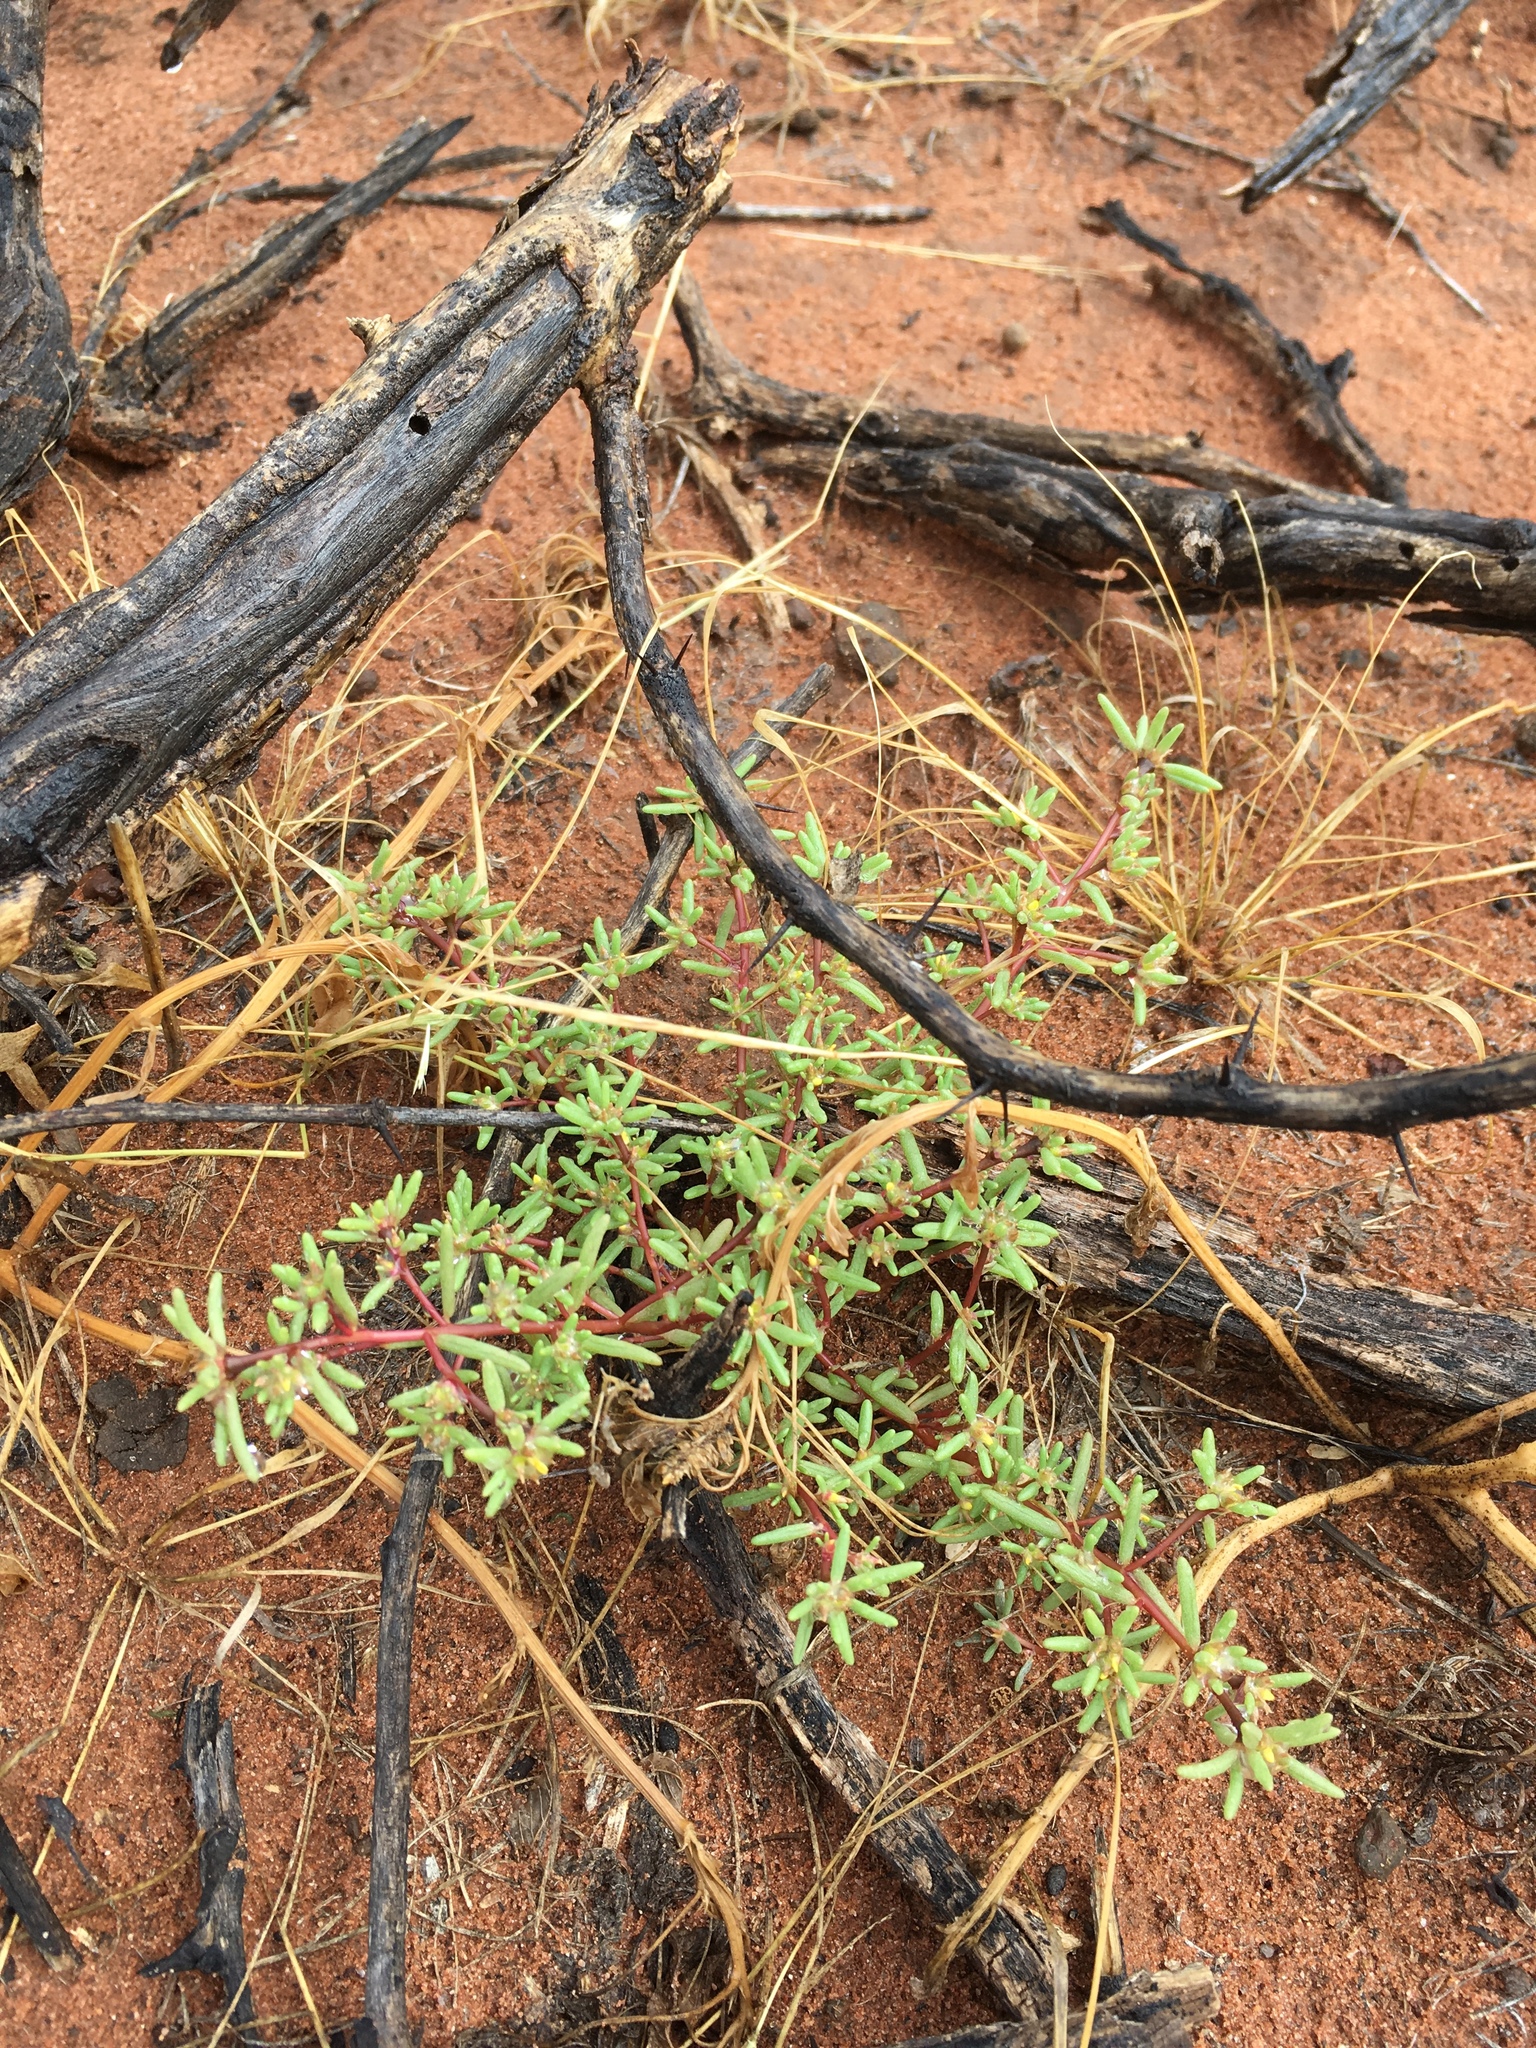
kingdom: Plantae
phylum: Tracheophyta
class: Magnoliopsida
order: Caryophyllales
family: Portulacaceae
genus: Portulaca
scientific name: Portulaca halimoides
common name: Silk cotton purslane
